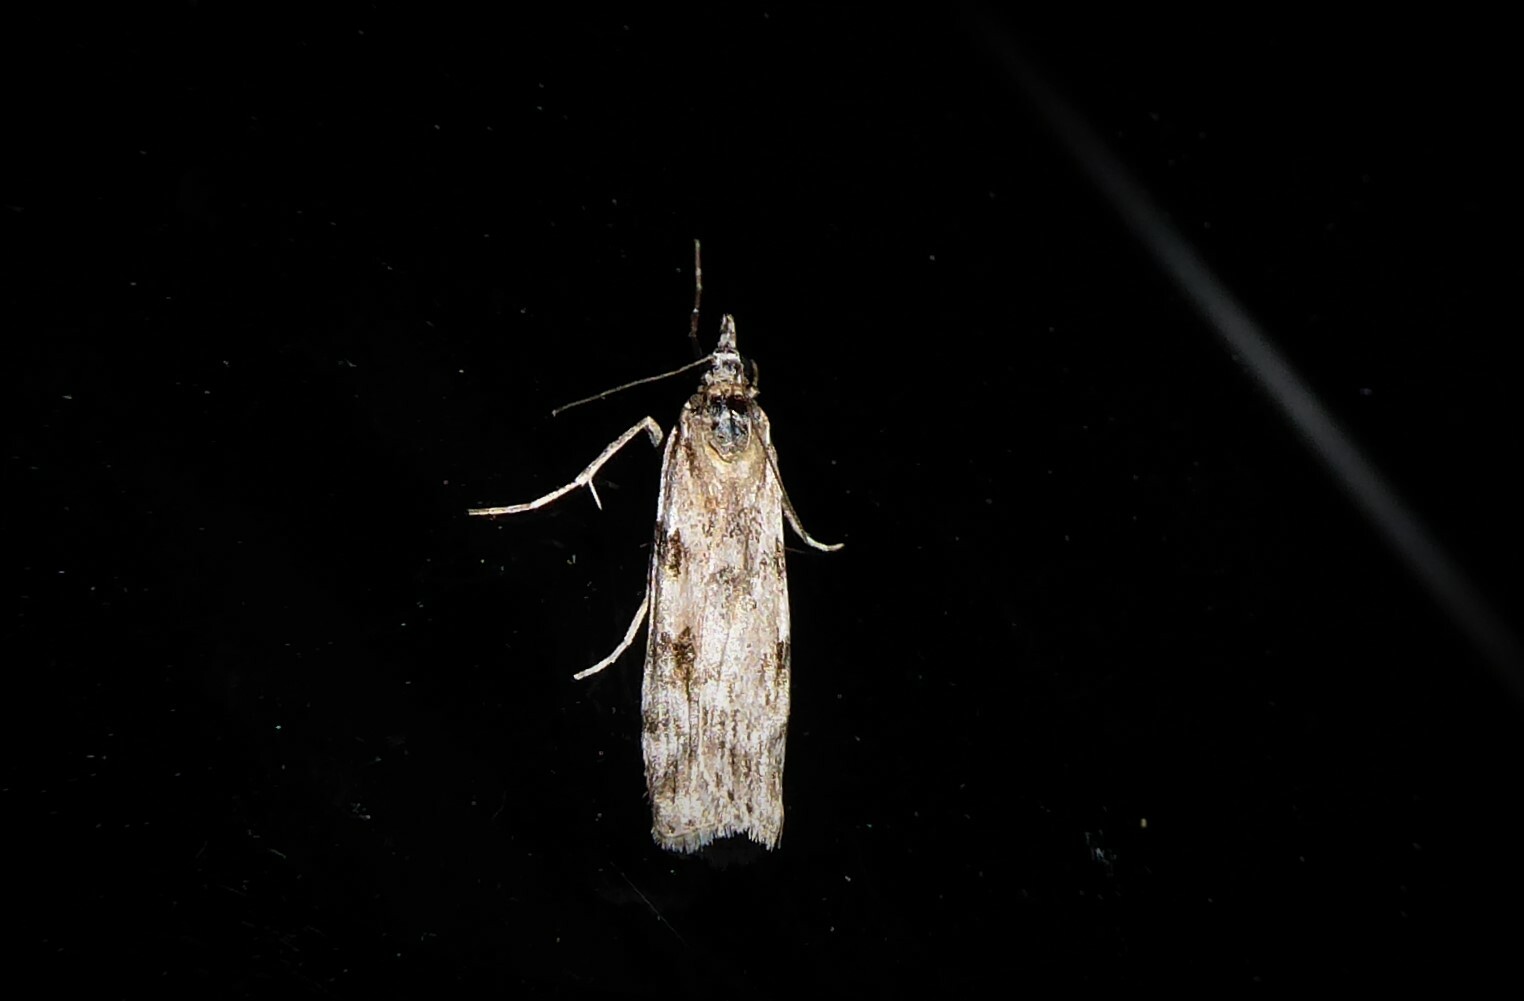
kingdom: Animalia
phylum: Arthropoda
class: Insecta
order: Lepidoptera
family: Crambidae
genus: Scoparia
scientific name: Scoparia halopis
